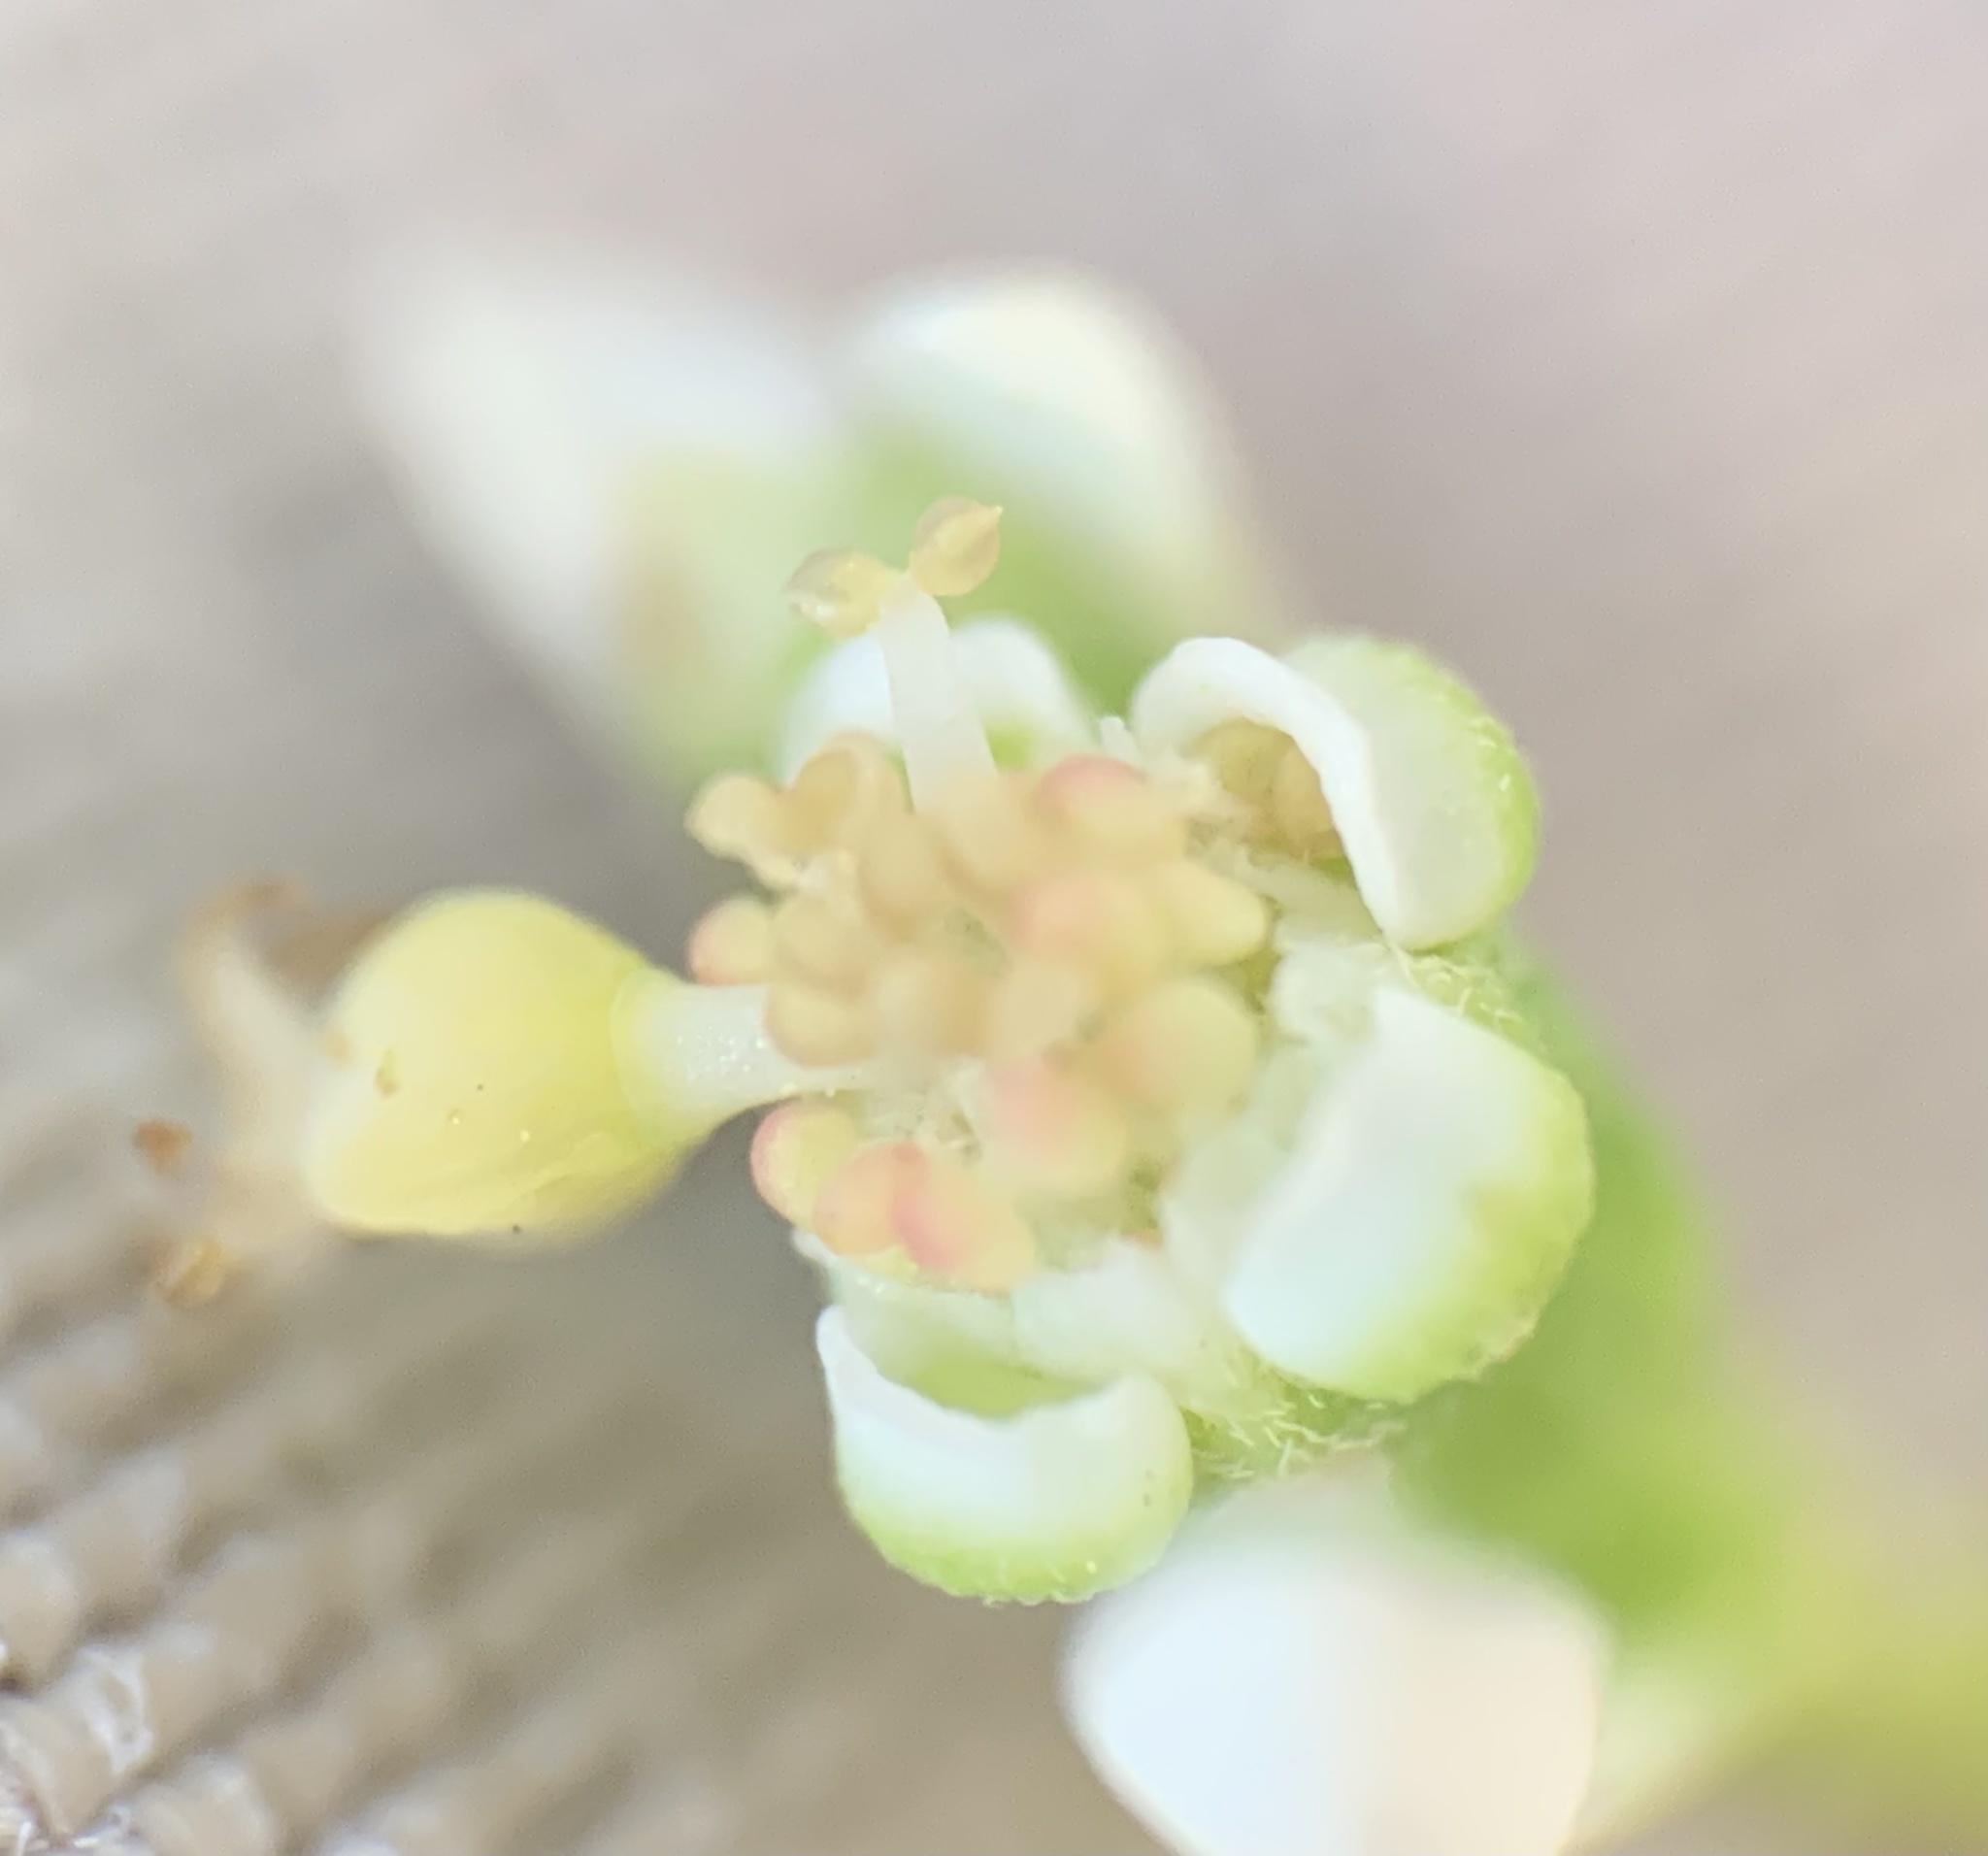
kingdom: Plantae
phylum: Tracheophyta
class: Magnoliopsida
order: Malpighiales
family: Euphorbiaceae
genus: Euphorbia
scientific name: Euphorbia graminea
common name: Grassleaf spurge
